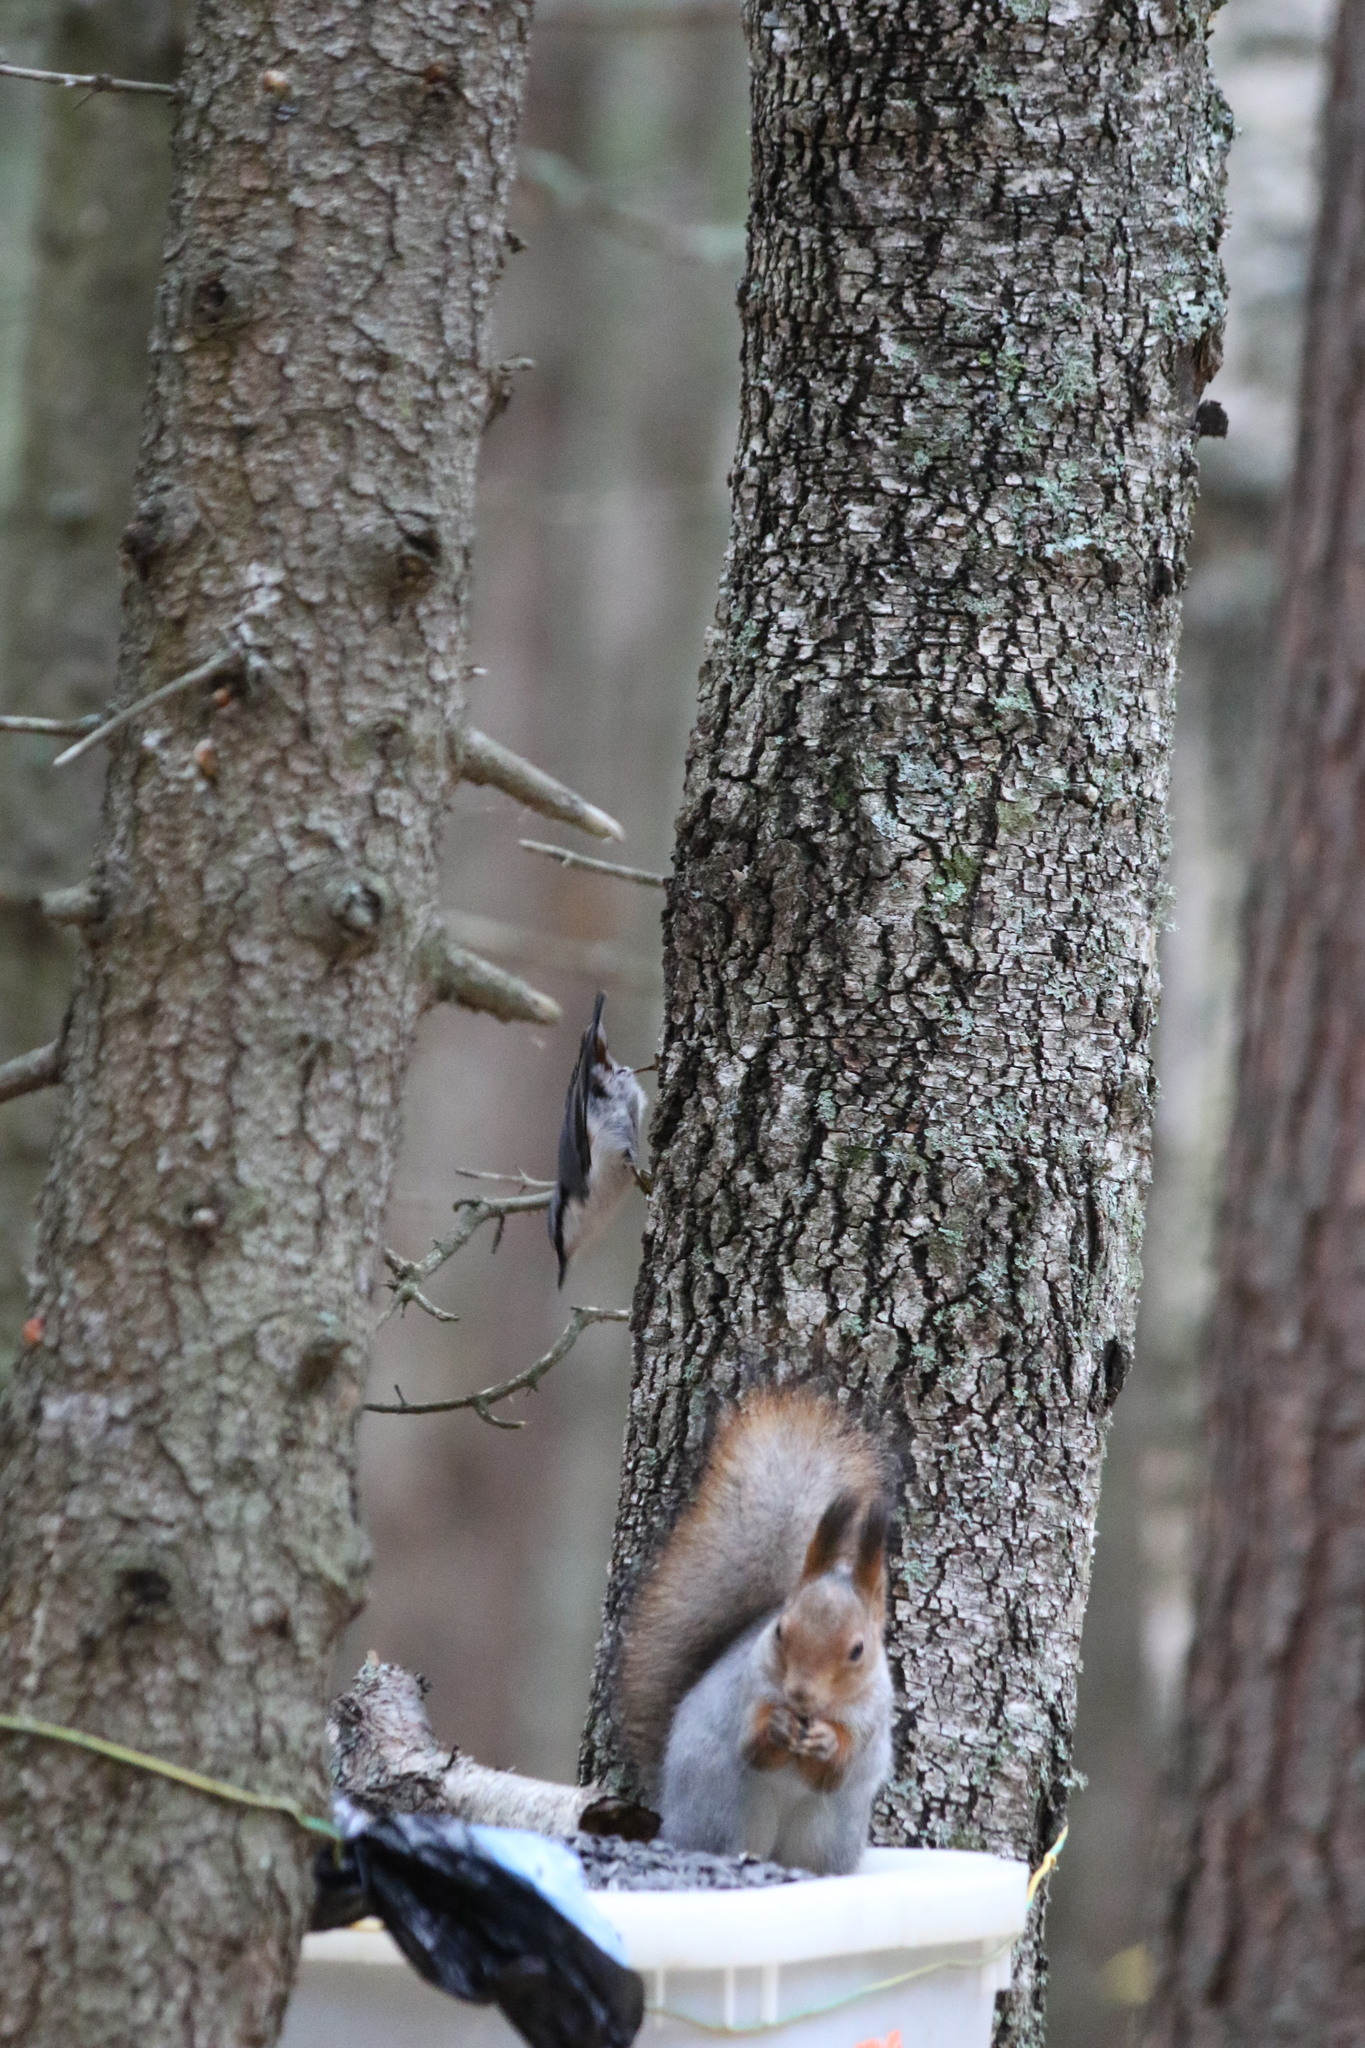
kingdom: Animalia
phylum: Chordata
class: Aves
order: Passeriformes
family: Sittidae
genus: Sitta
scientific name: Sitta europaea
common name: Eurasian nuthatch
